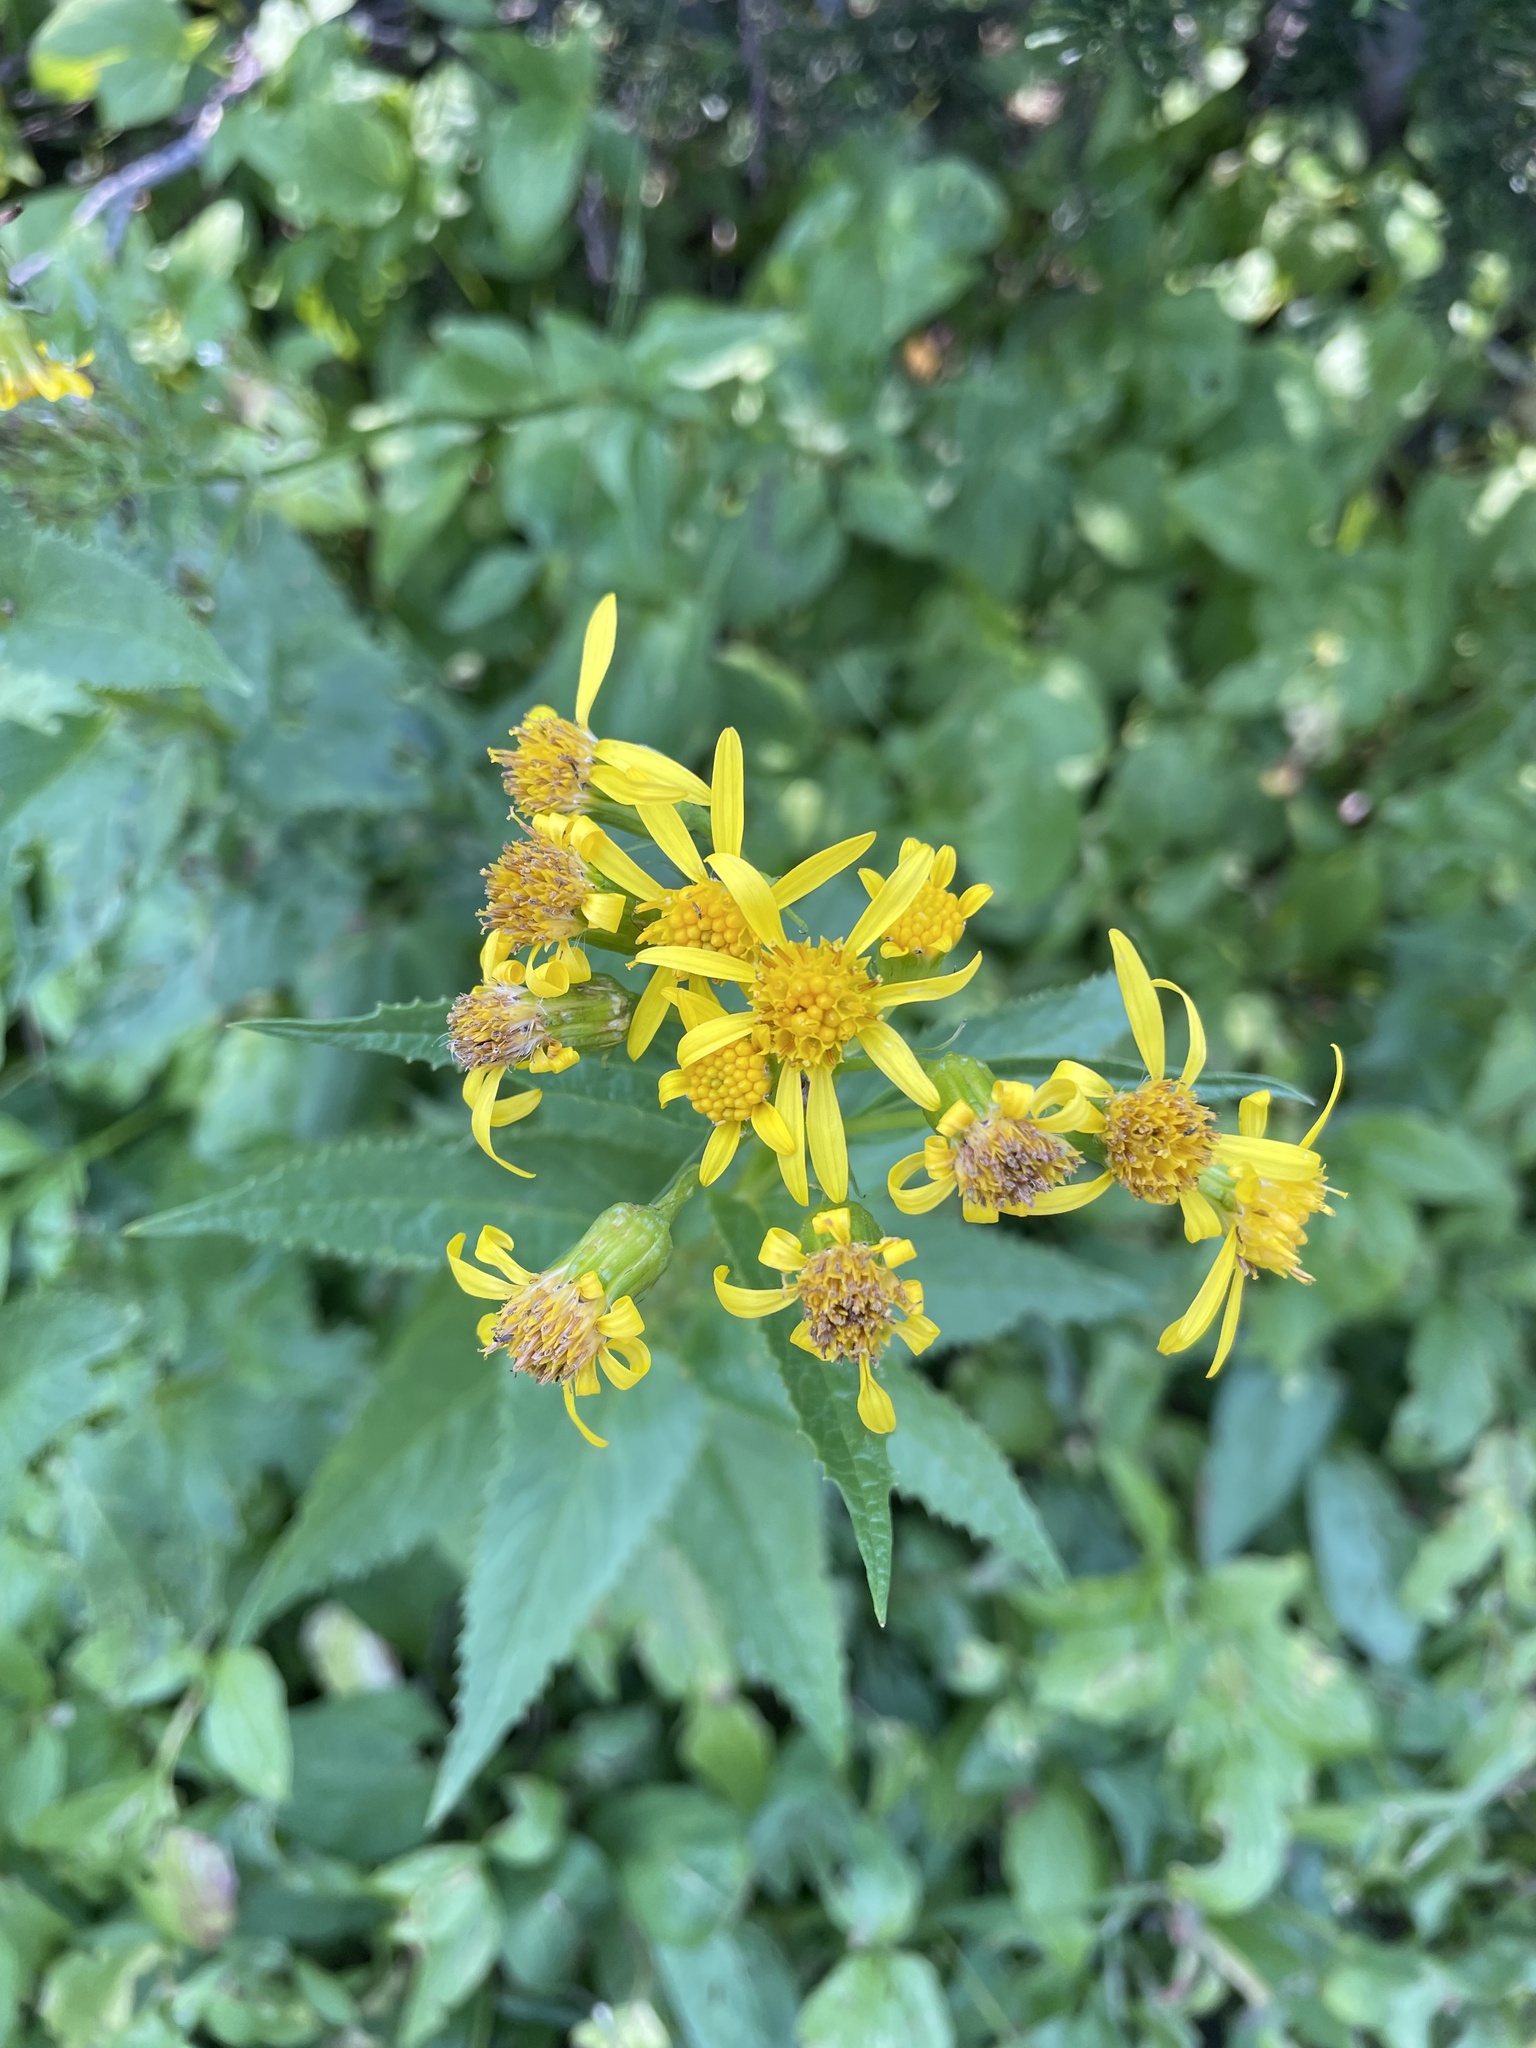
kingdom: Plantae
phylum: Tracheophyta
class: Magnoliopsida
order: Asterales
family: Asteraceae
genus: Senecio
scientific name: Senecio triangularis
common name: Arrowleaf butterweed
